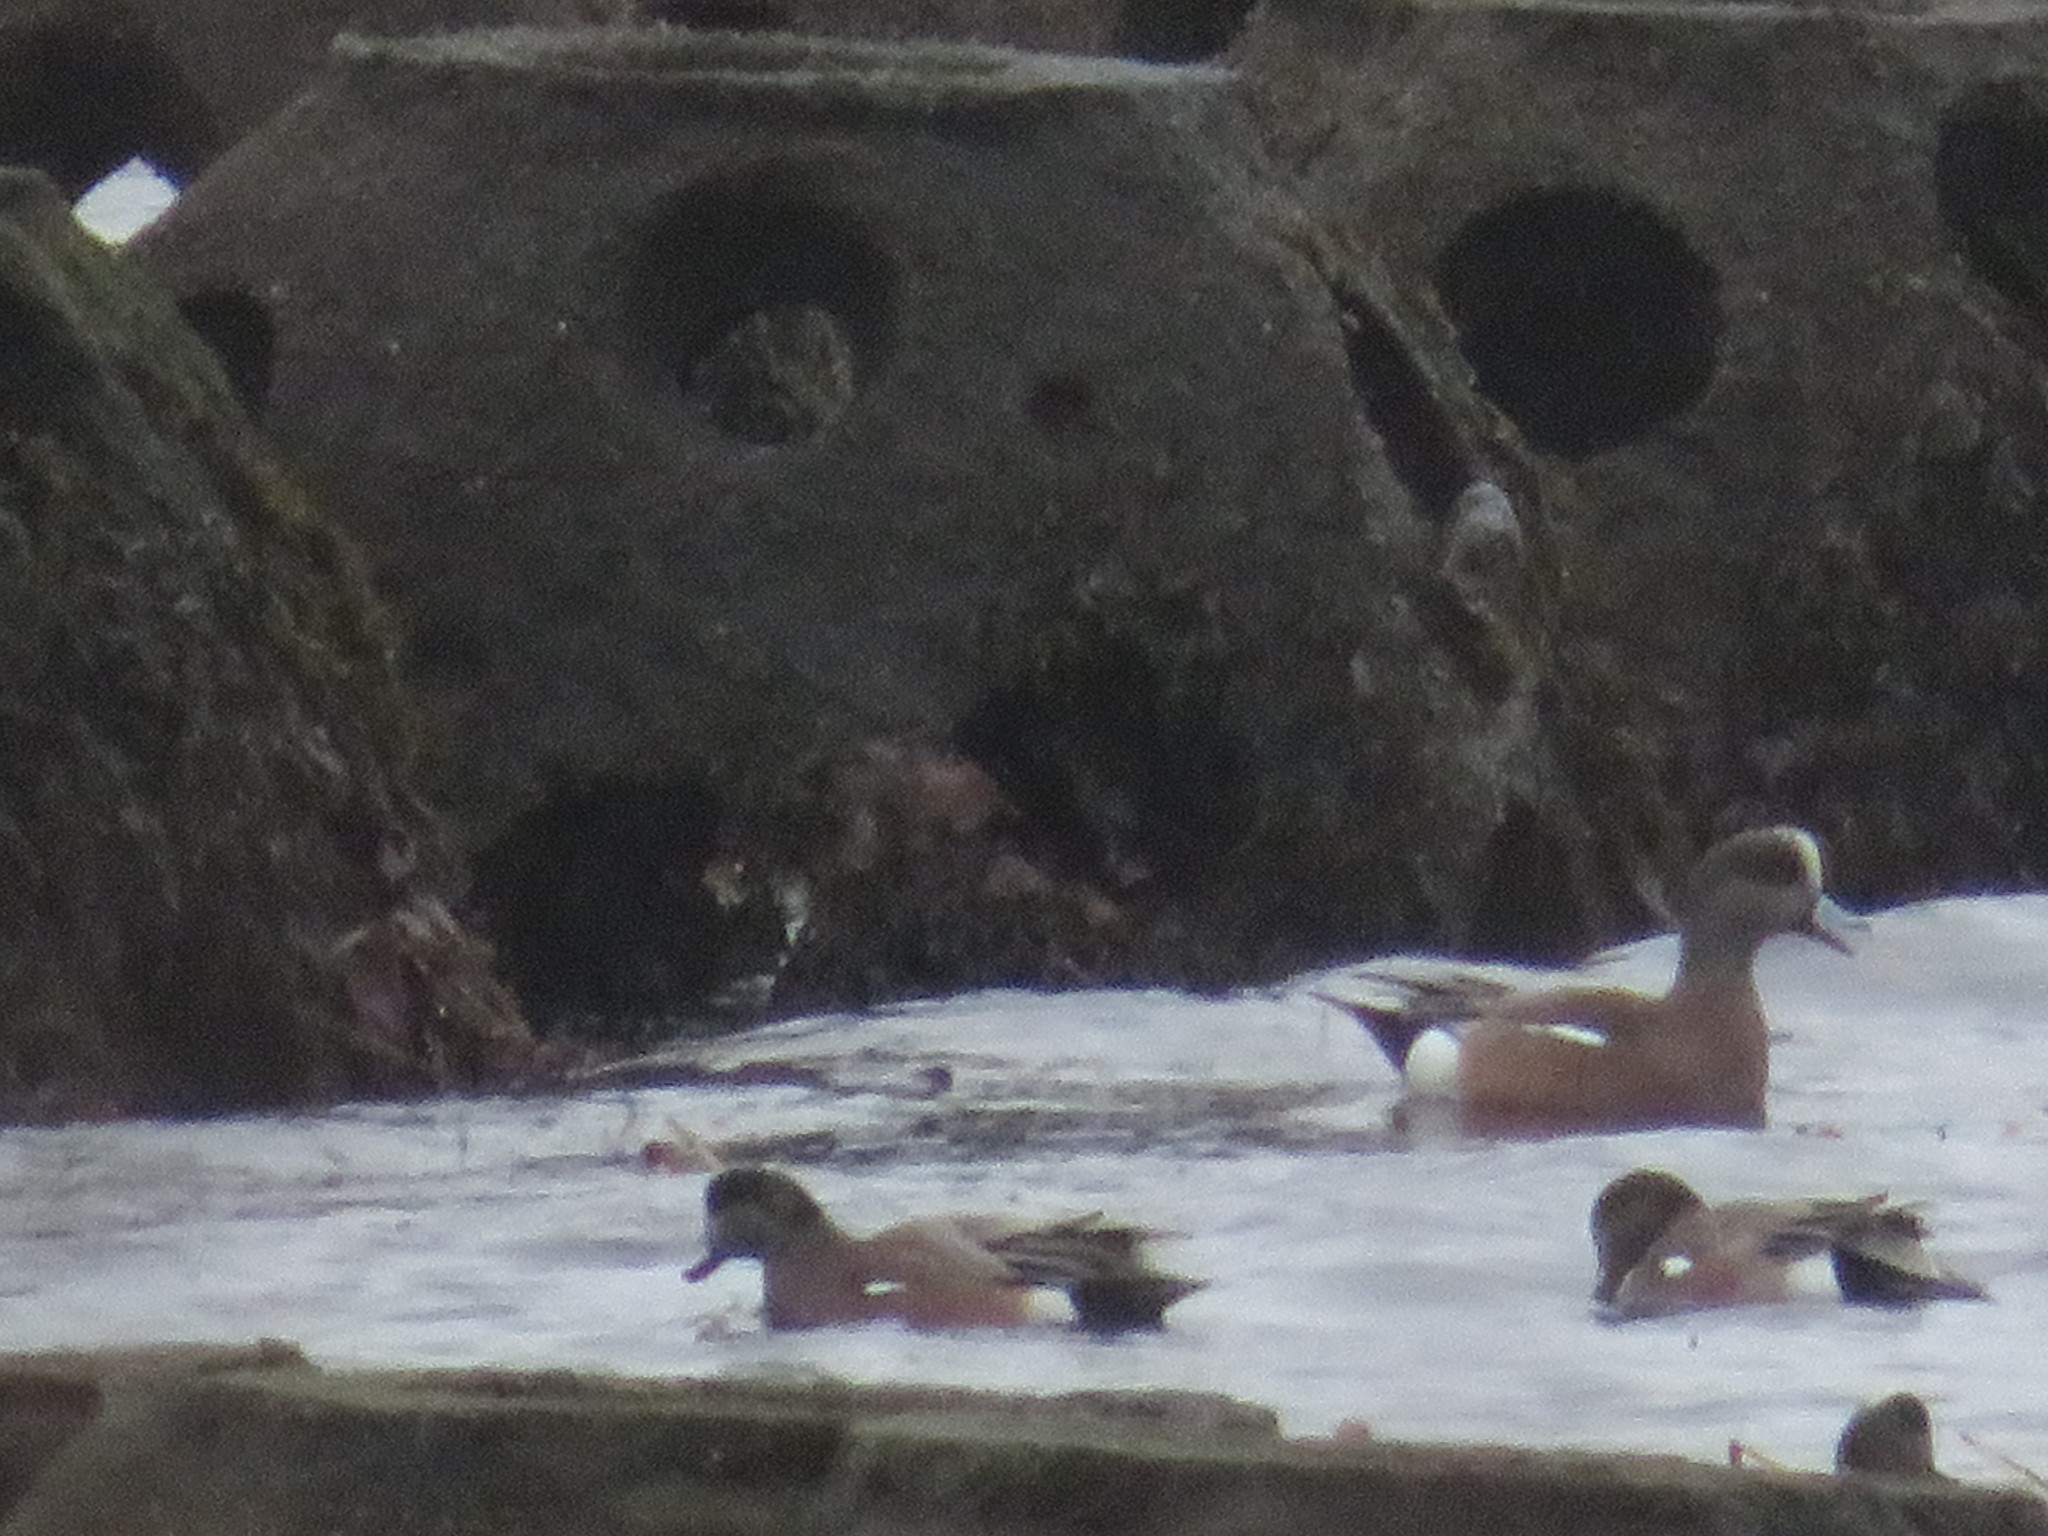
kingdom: Animalia
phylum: Chordata
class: Aves
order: Anseriformes
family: Anatidae
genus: Mareca
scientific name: Mareca americana
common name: American wigeon
